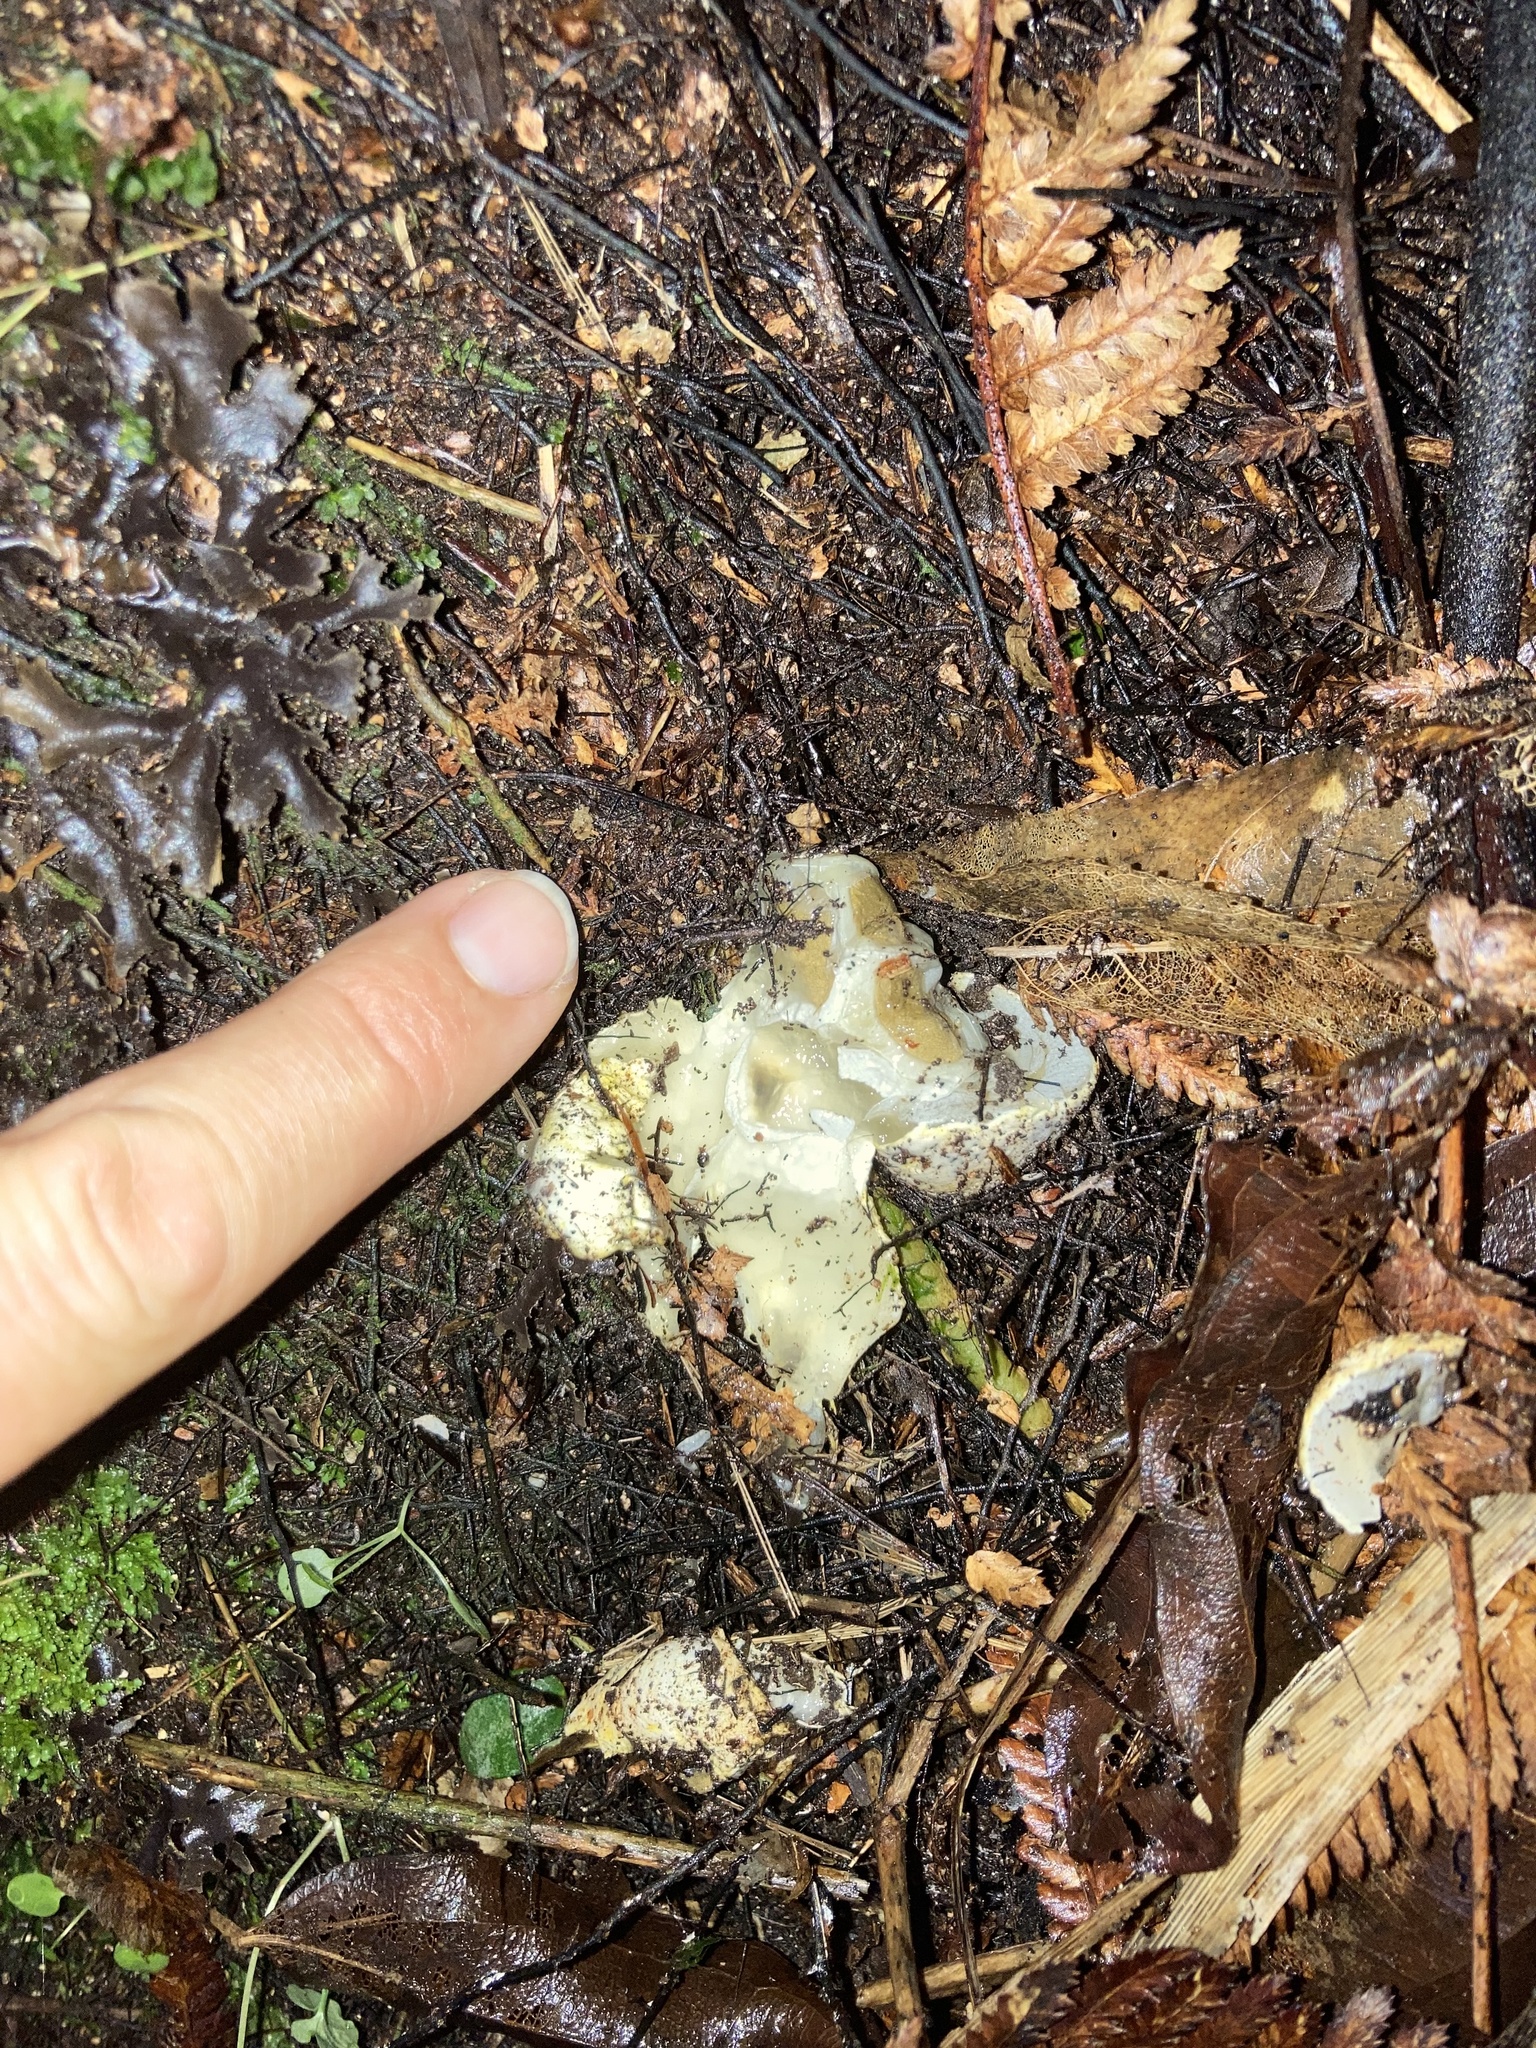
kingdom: Fungi
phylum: Basidiomycota
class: Agaricomycetes
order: Phallales
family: Phallaceae
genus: Ileodictyon
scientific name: Ileodictyon cibarium
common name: Basket fungus
